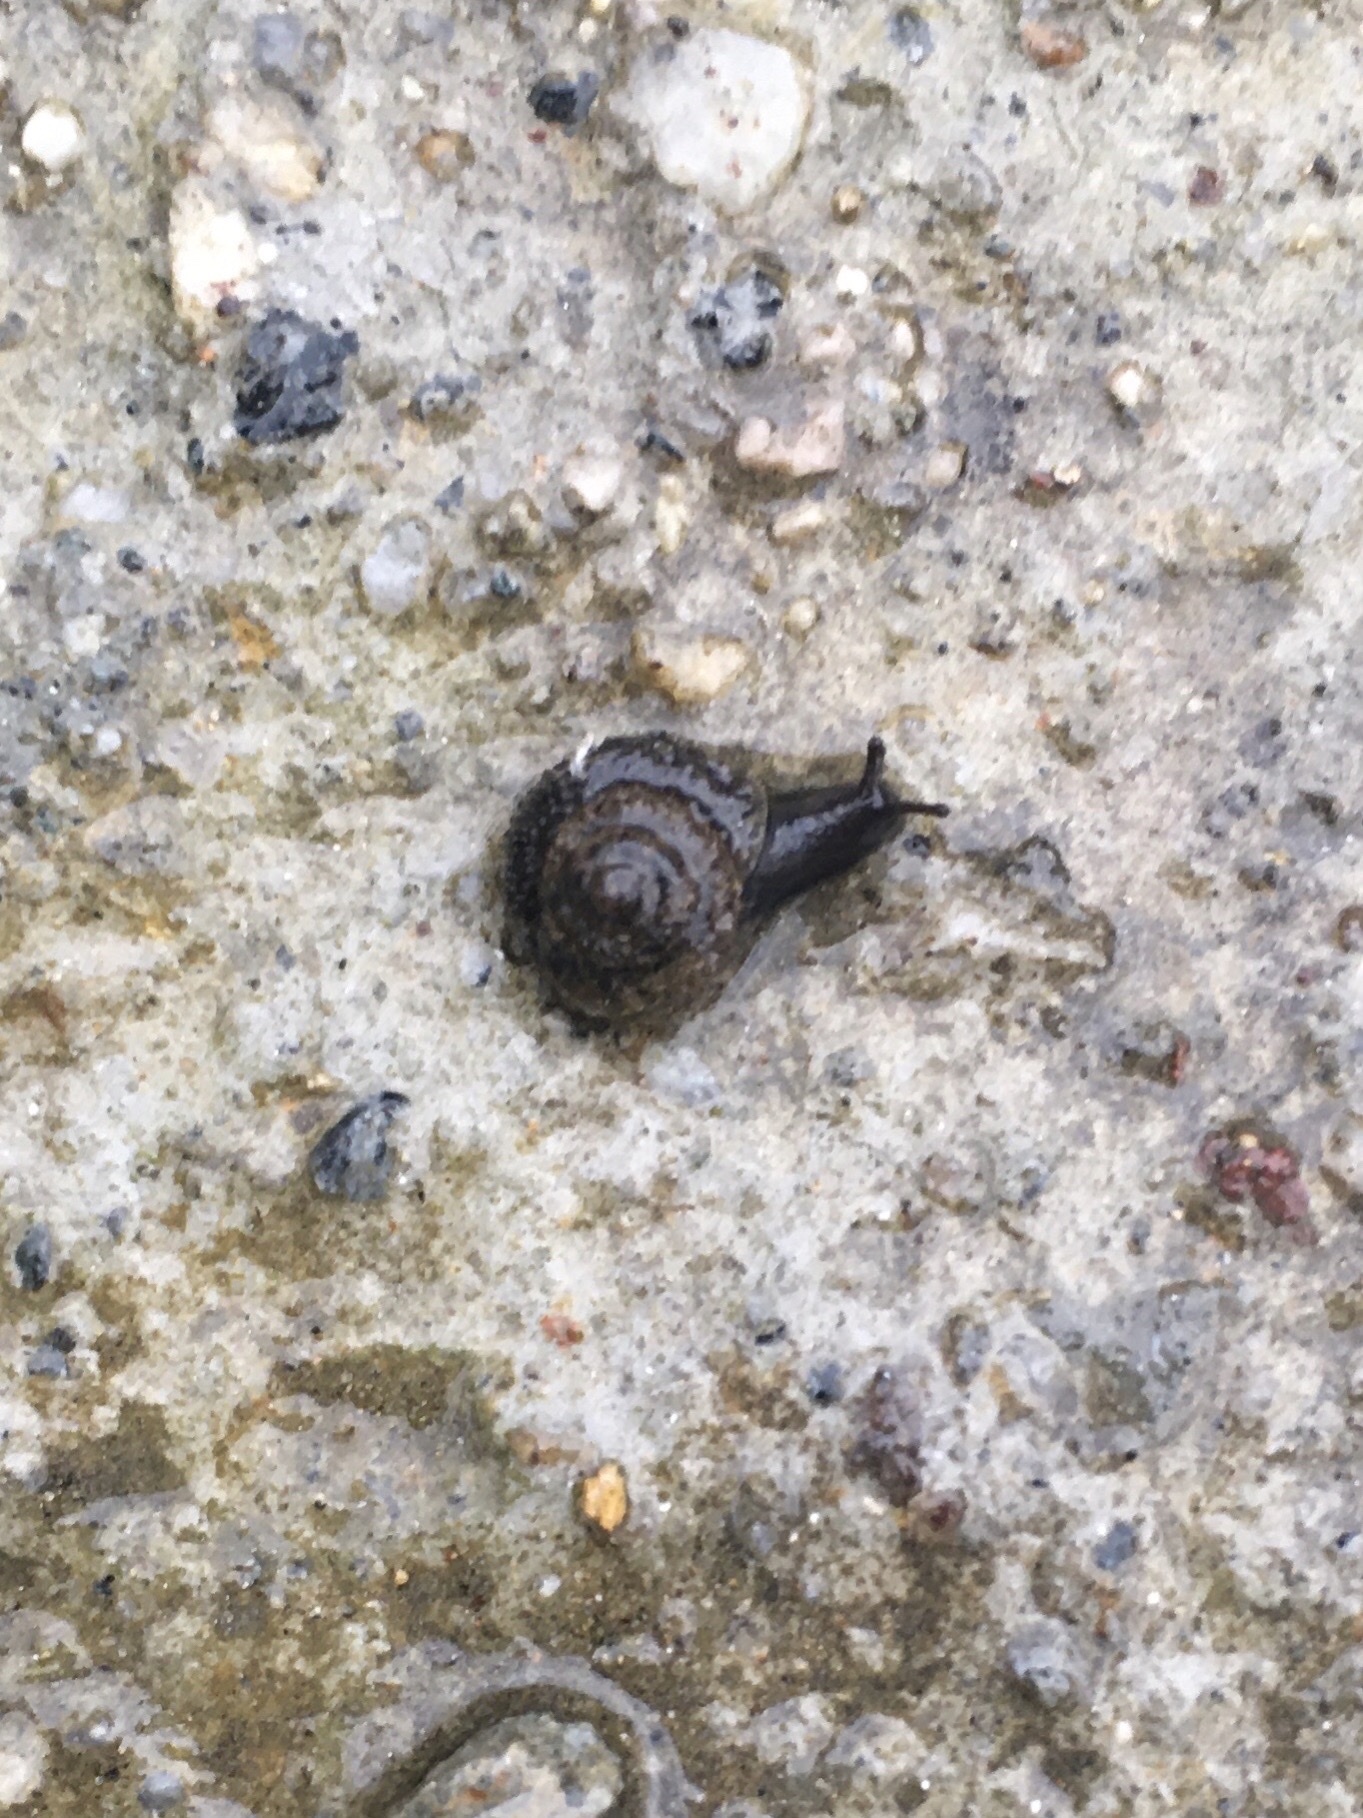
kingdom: Animalia
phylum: Mollusca
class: Gastropoda
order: Stylommatophora
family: Geomitridae
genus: Xerotricha
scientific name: Xerotricha conspurcata
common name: Snail
